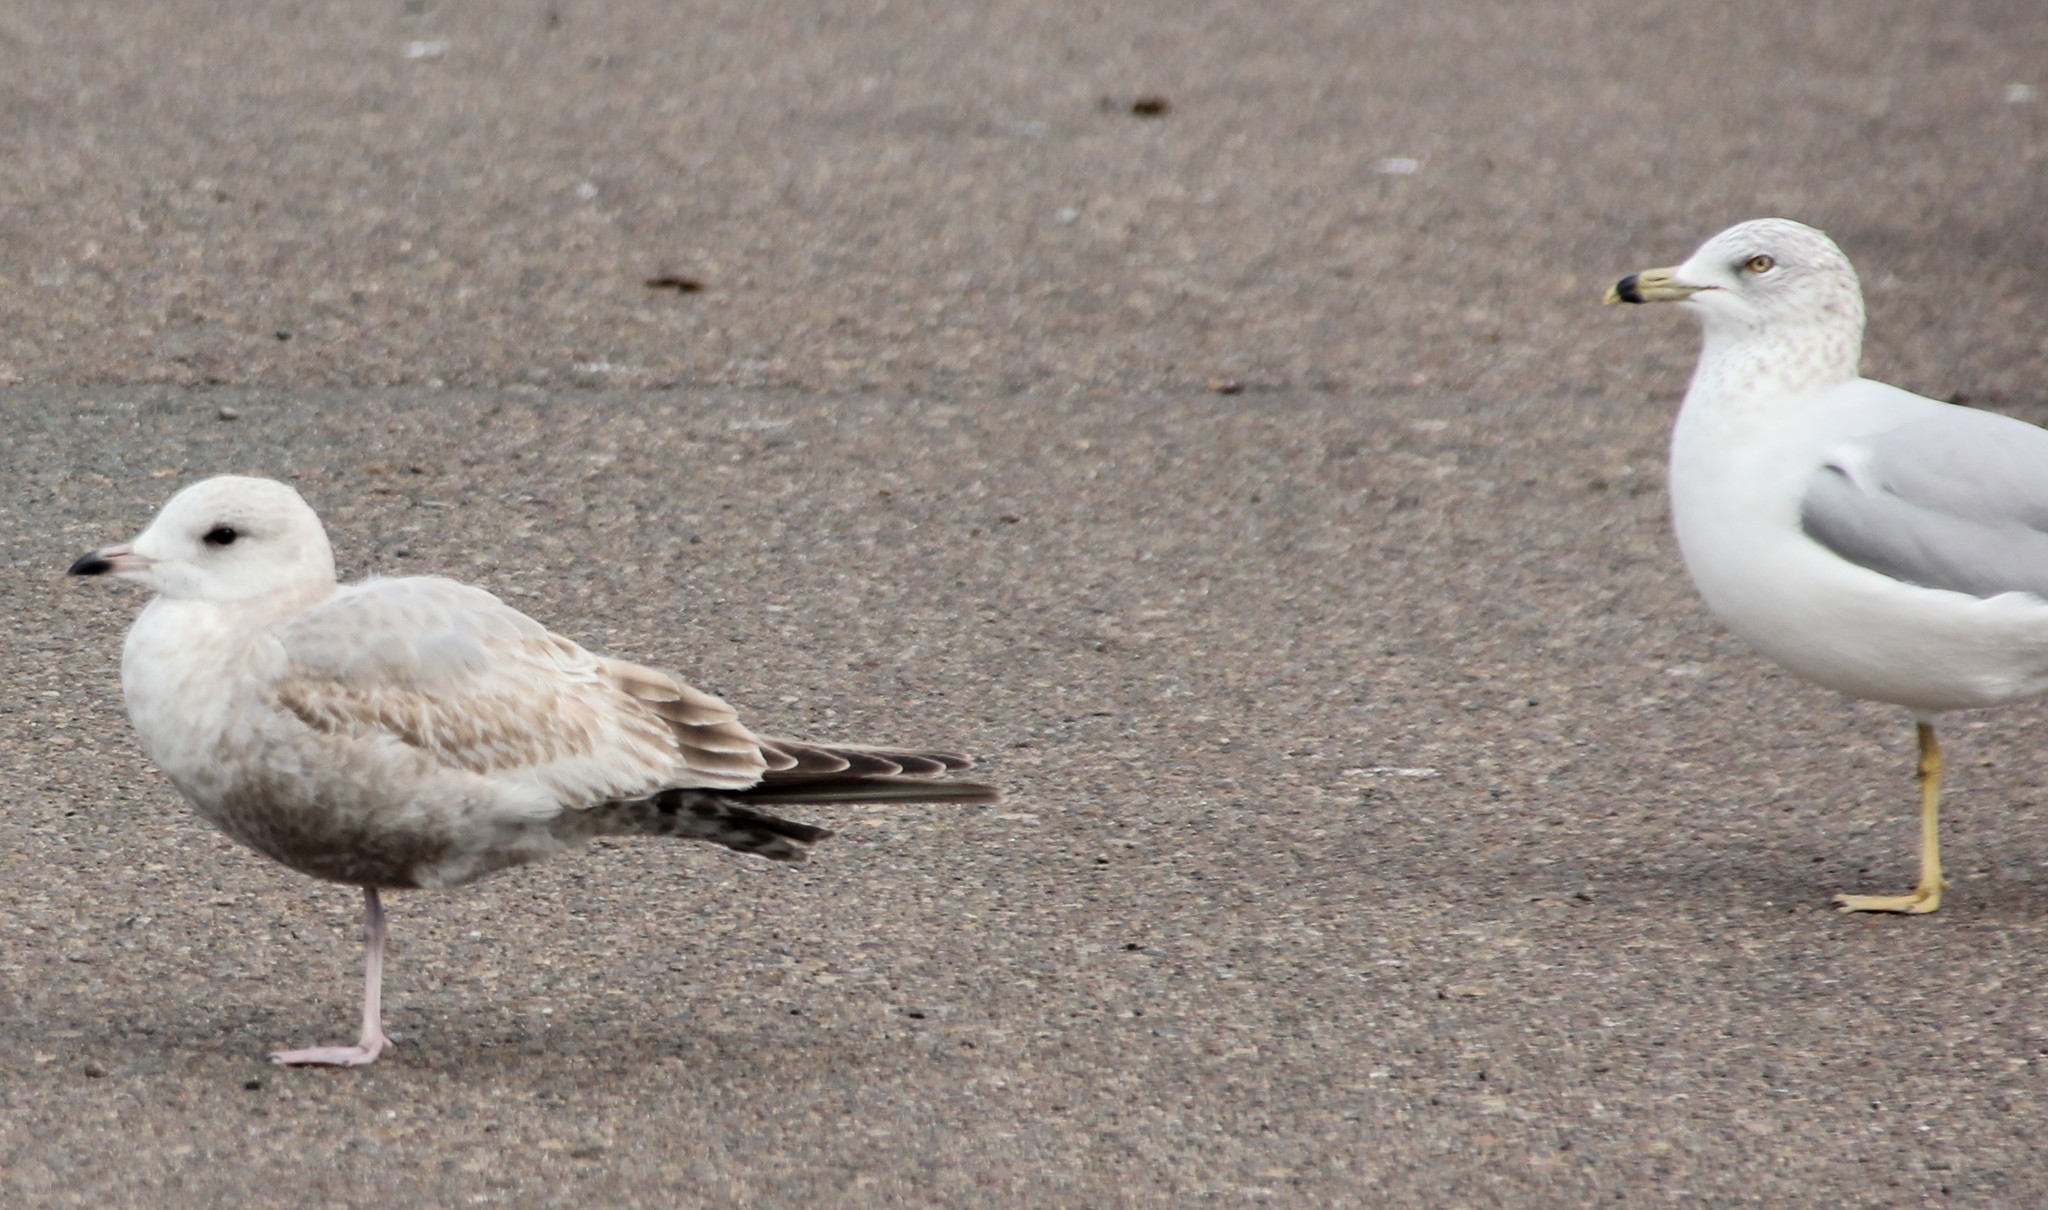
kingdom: Animalia
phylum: Chordata
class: Aves
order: Charadriiformes
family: Laridae
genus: Larus
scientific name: Larus brachyrhynchus
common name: Short-billed gull
